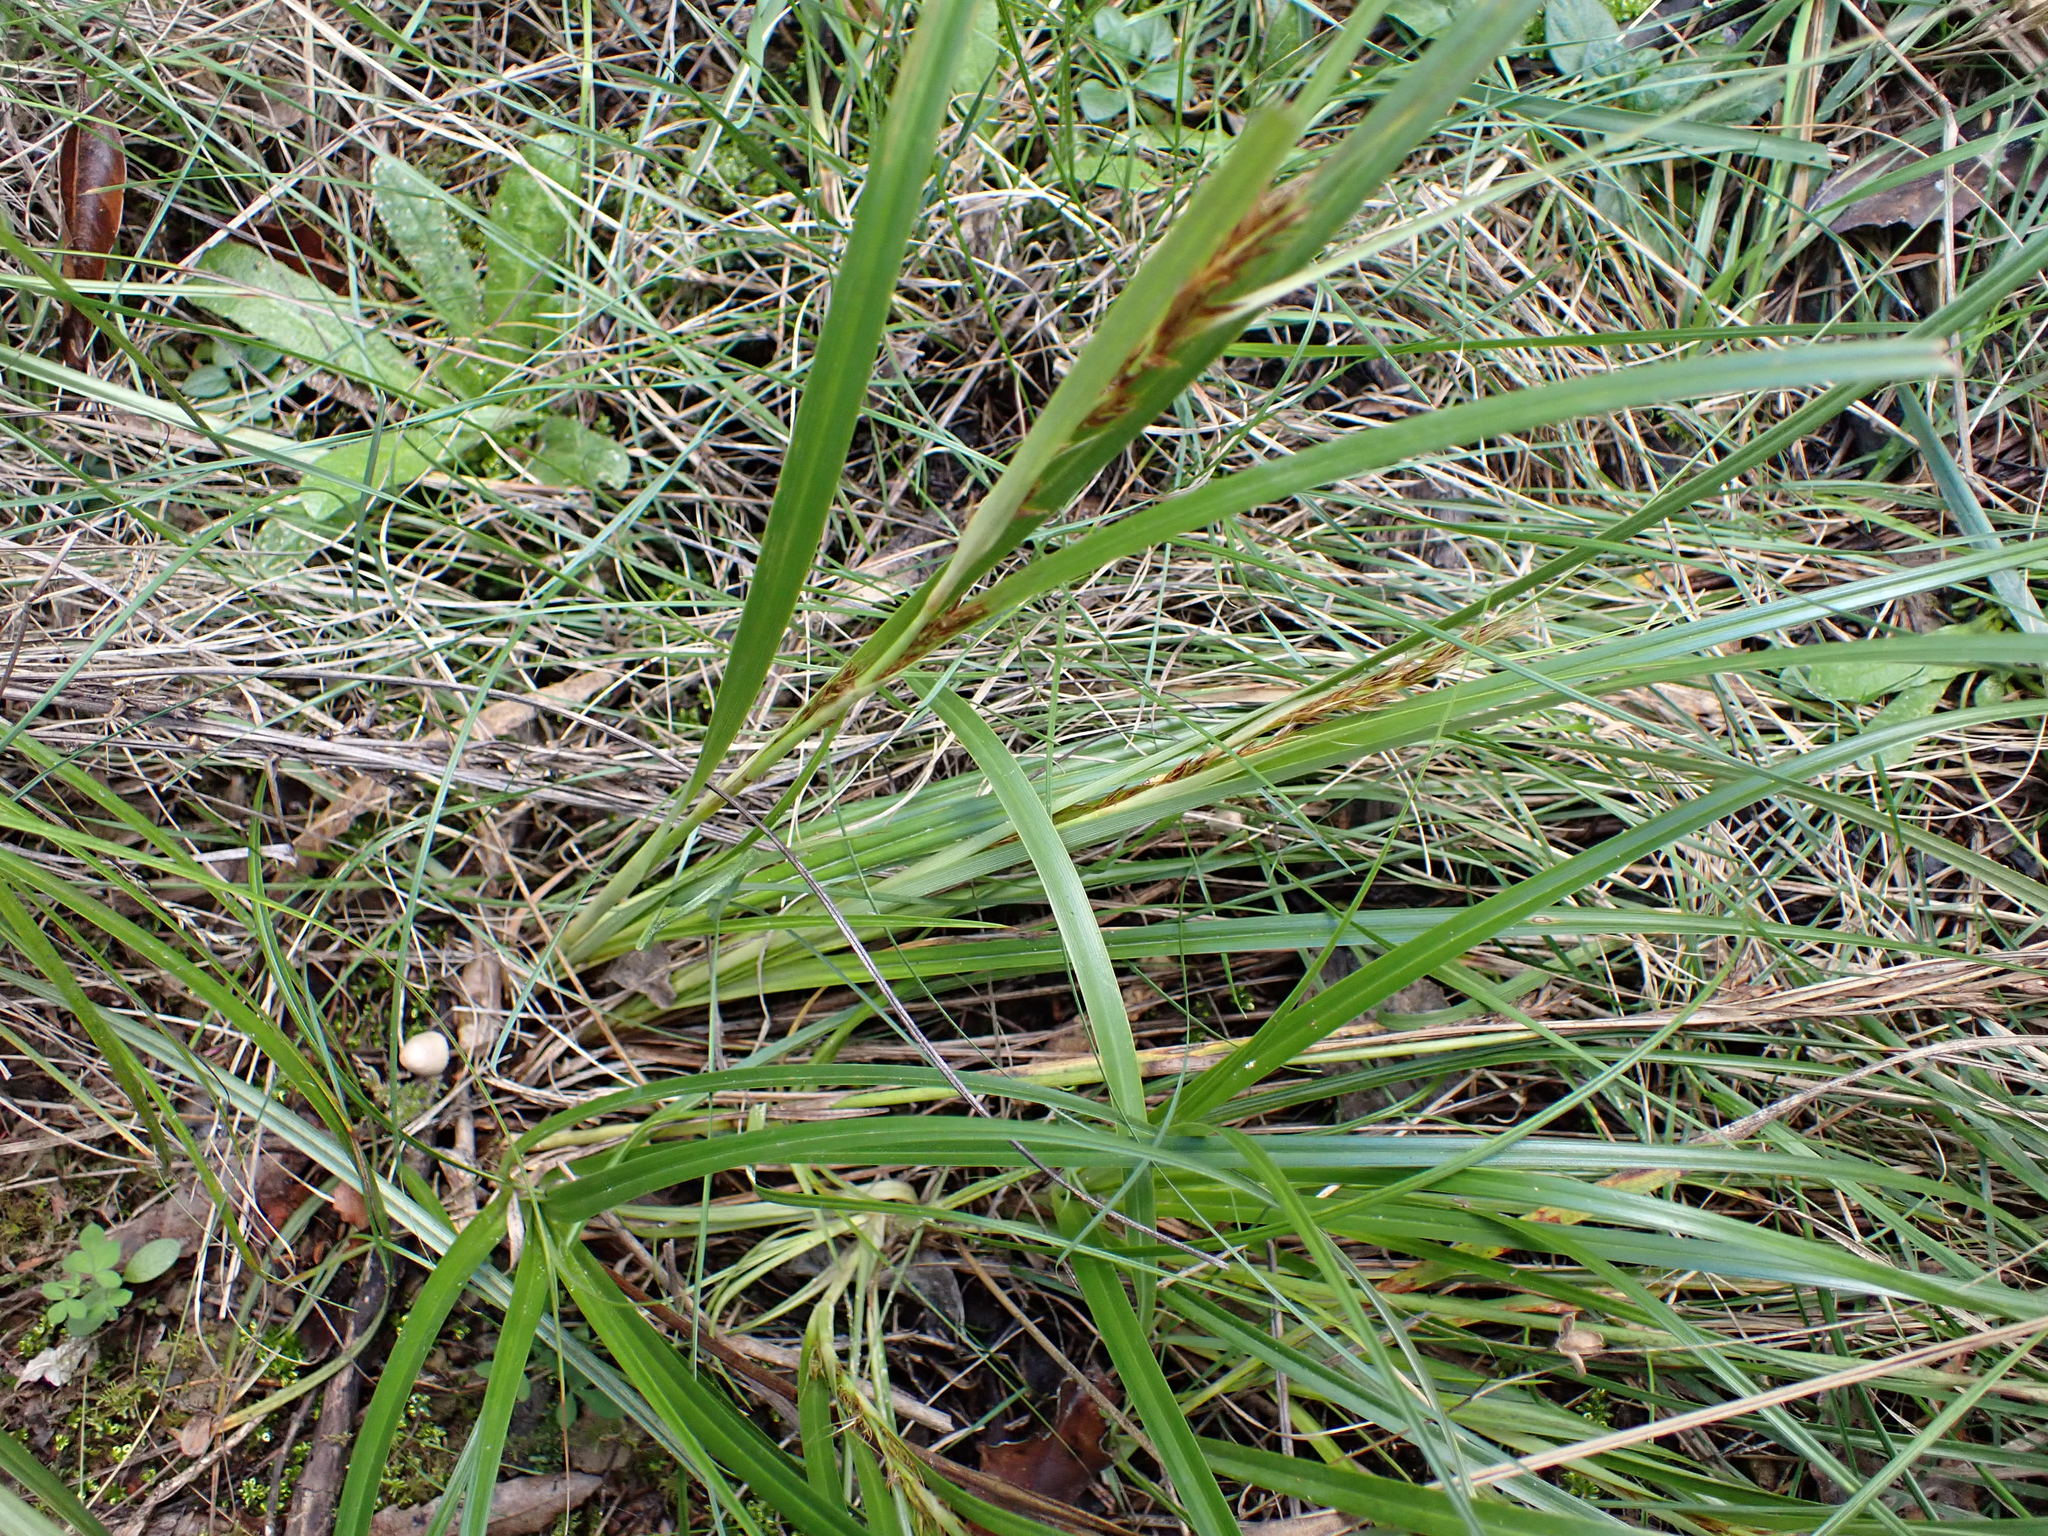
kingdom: Plantae
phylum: Tracheophyta
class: Liliopsida
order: Poales
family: Cyperaceae
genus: Morelotia
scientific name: Morelotia affinis
